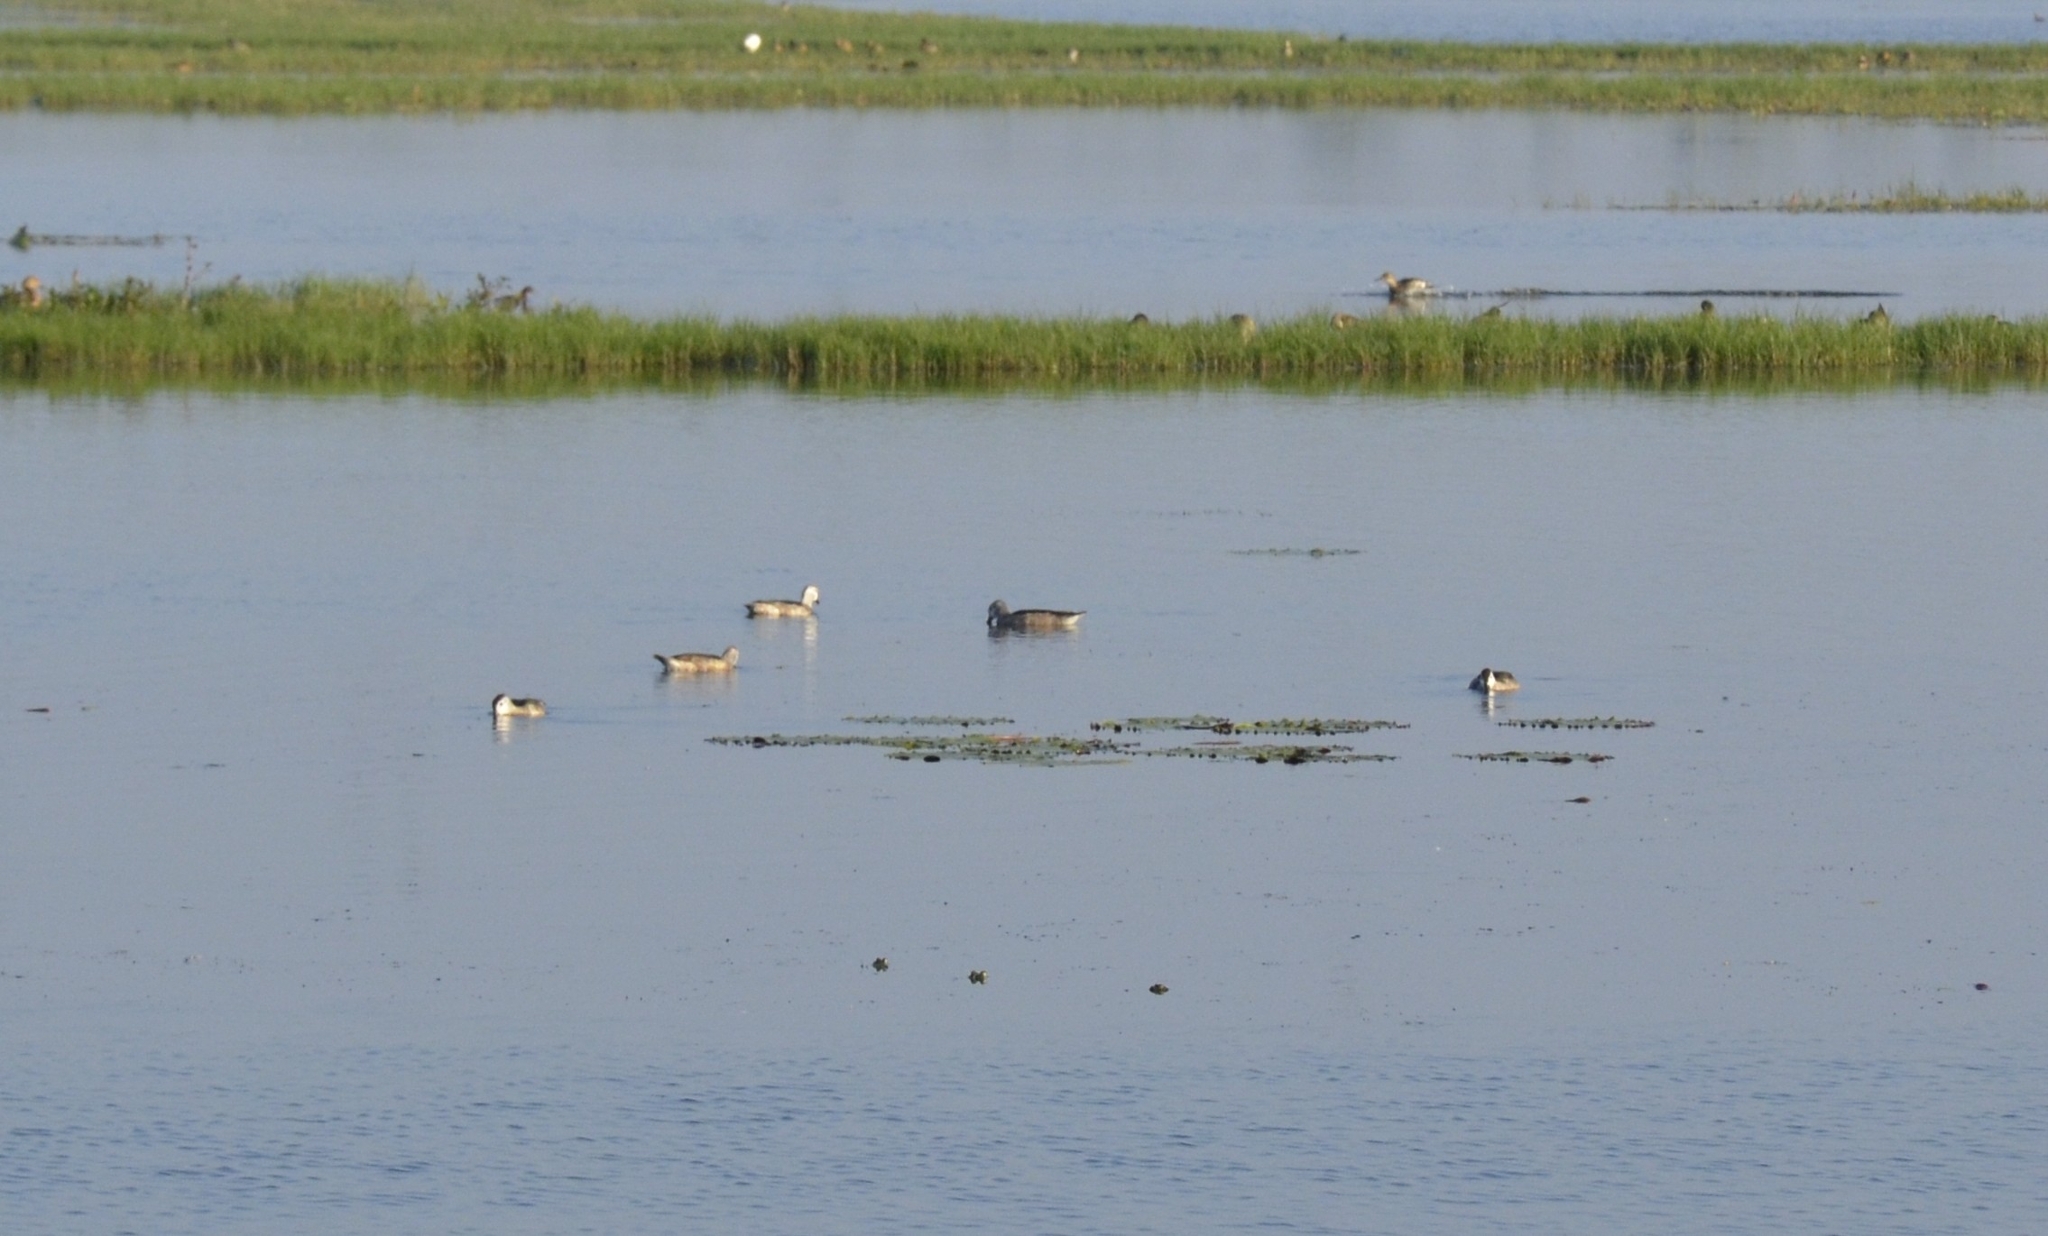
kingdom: Animalia
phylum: Chordata
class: Aves
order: Anseriformes
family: Anatidae
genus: Nettapus
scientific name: Nettapus coromandelianus
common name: Cotton pygmy-goose
